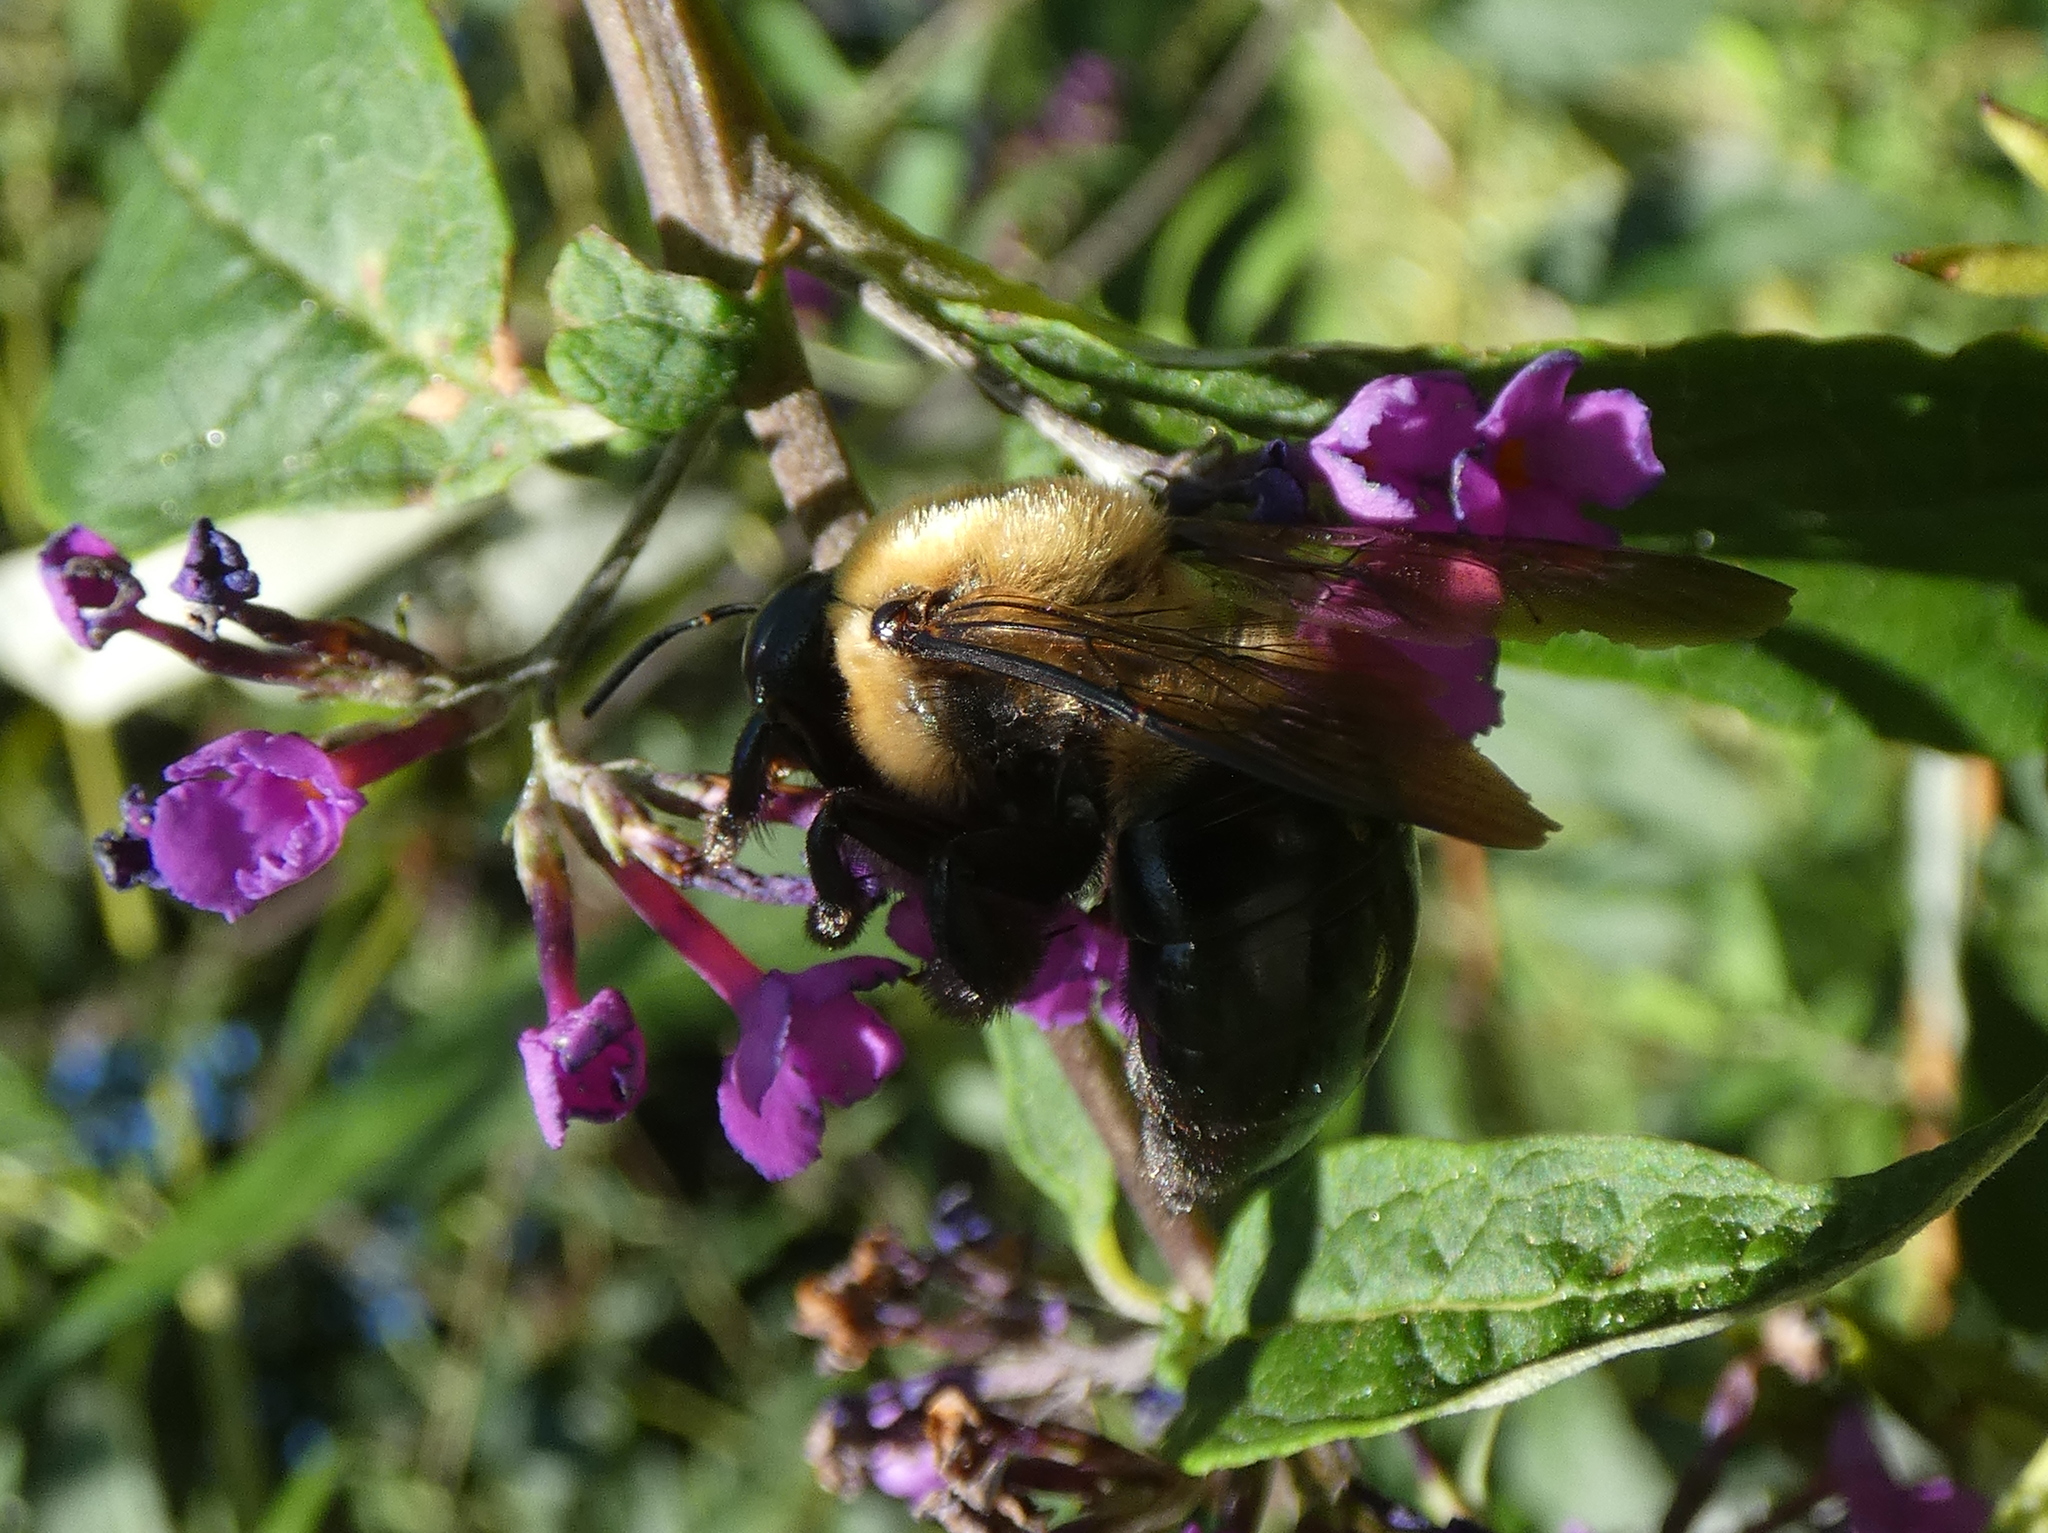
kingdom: Animalia
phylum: Arthropoda
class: Insecta
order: Hymenoptera
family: Apidae
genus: Xylocopa
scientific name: Xylocopa virginica
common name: Carpenter bee
